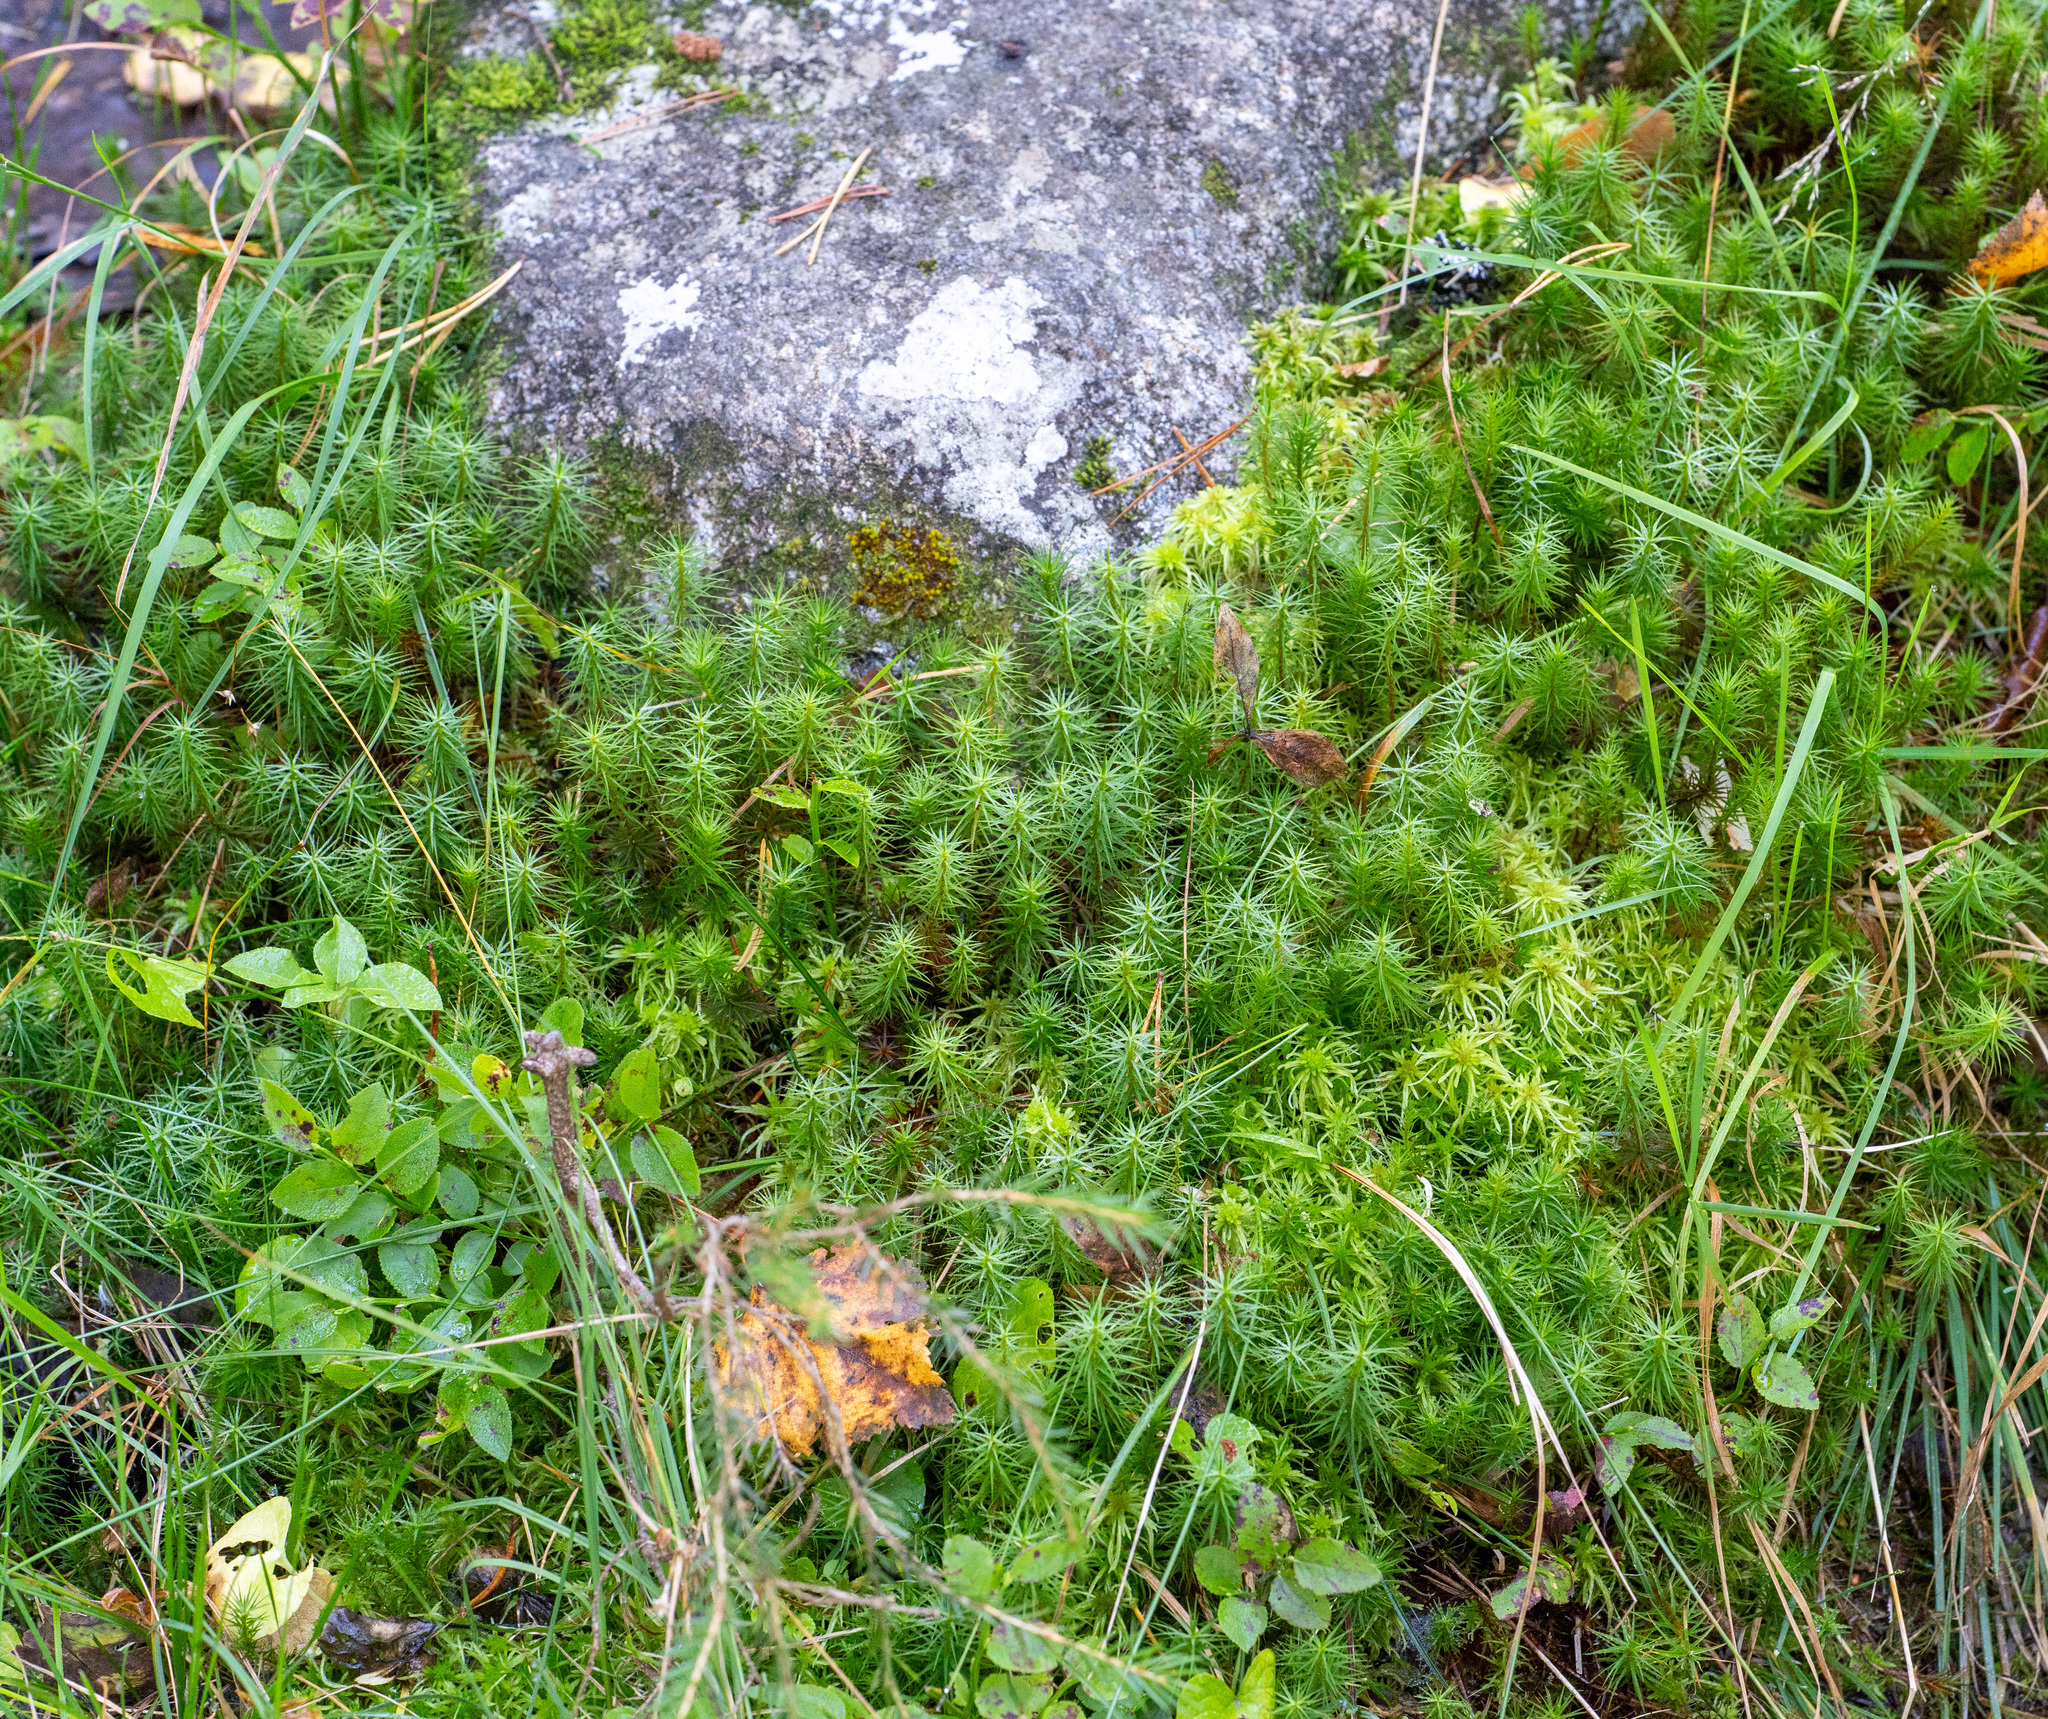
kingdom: Plantae
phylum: Bryophyta
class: Polytrichopsida
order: Polytrichales
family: Polytrichaceae
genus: Polytrichum
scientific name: Polytrichum commune
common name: Common haircap
